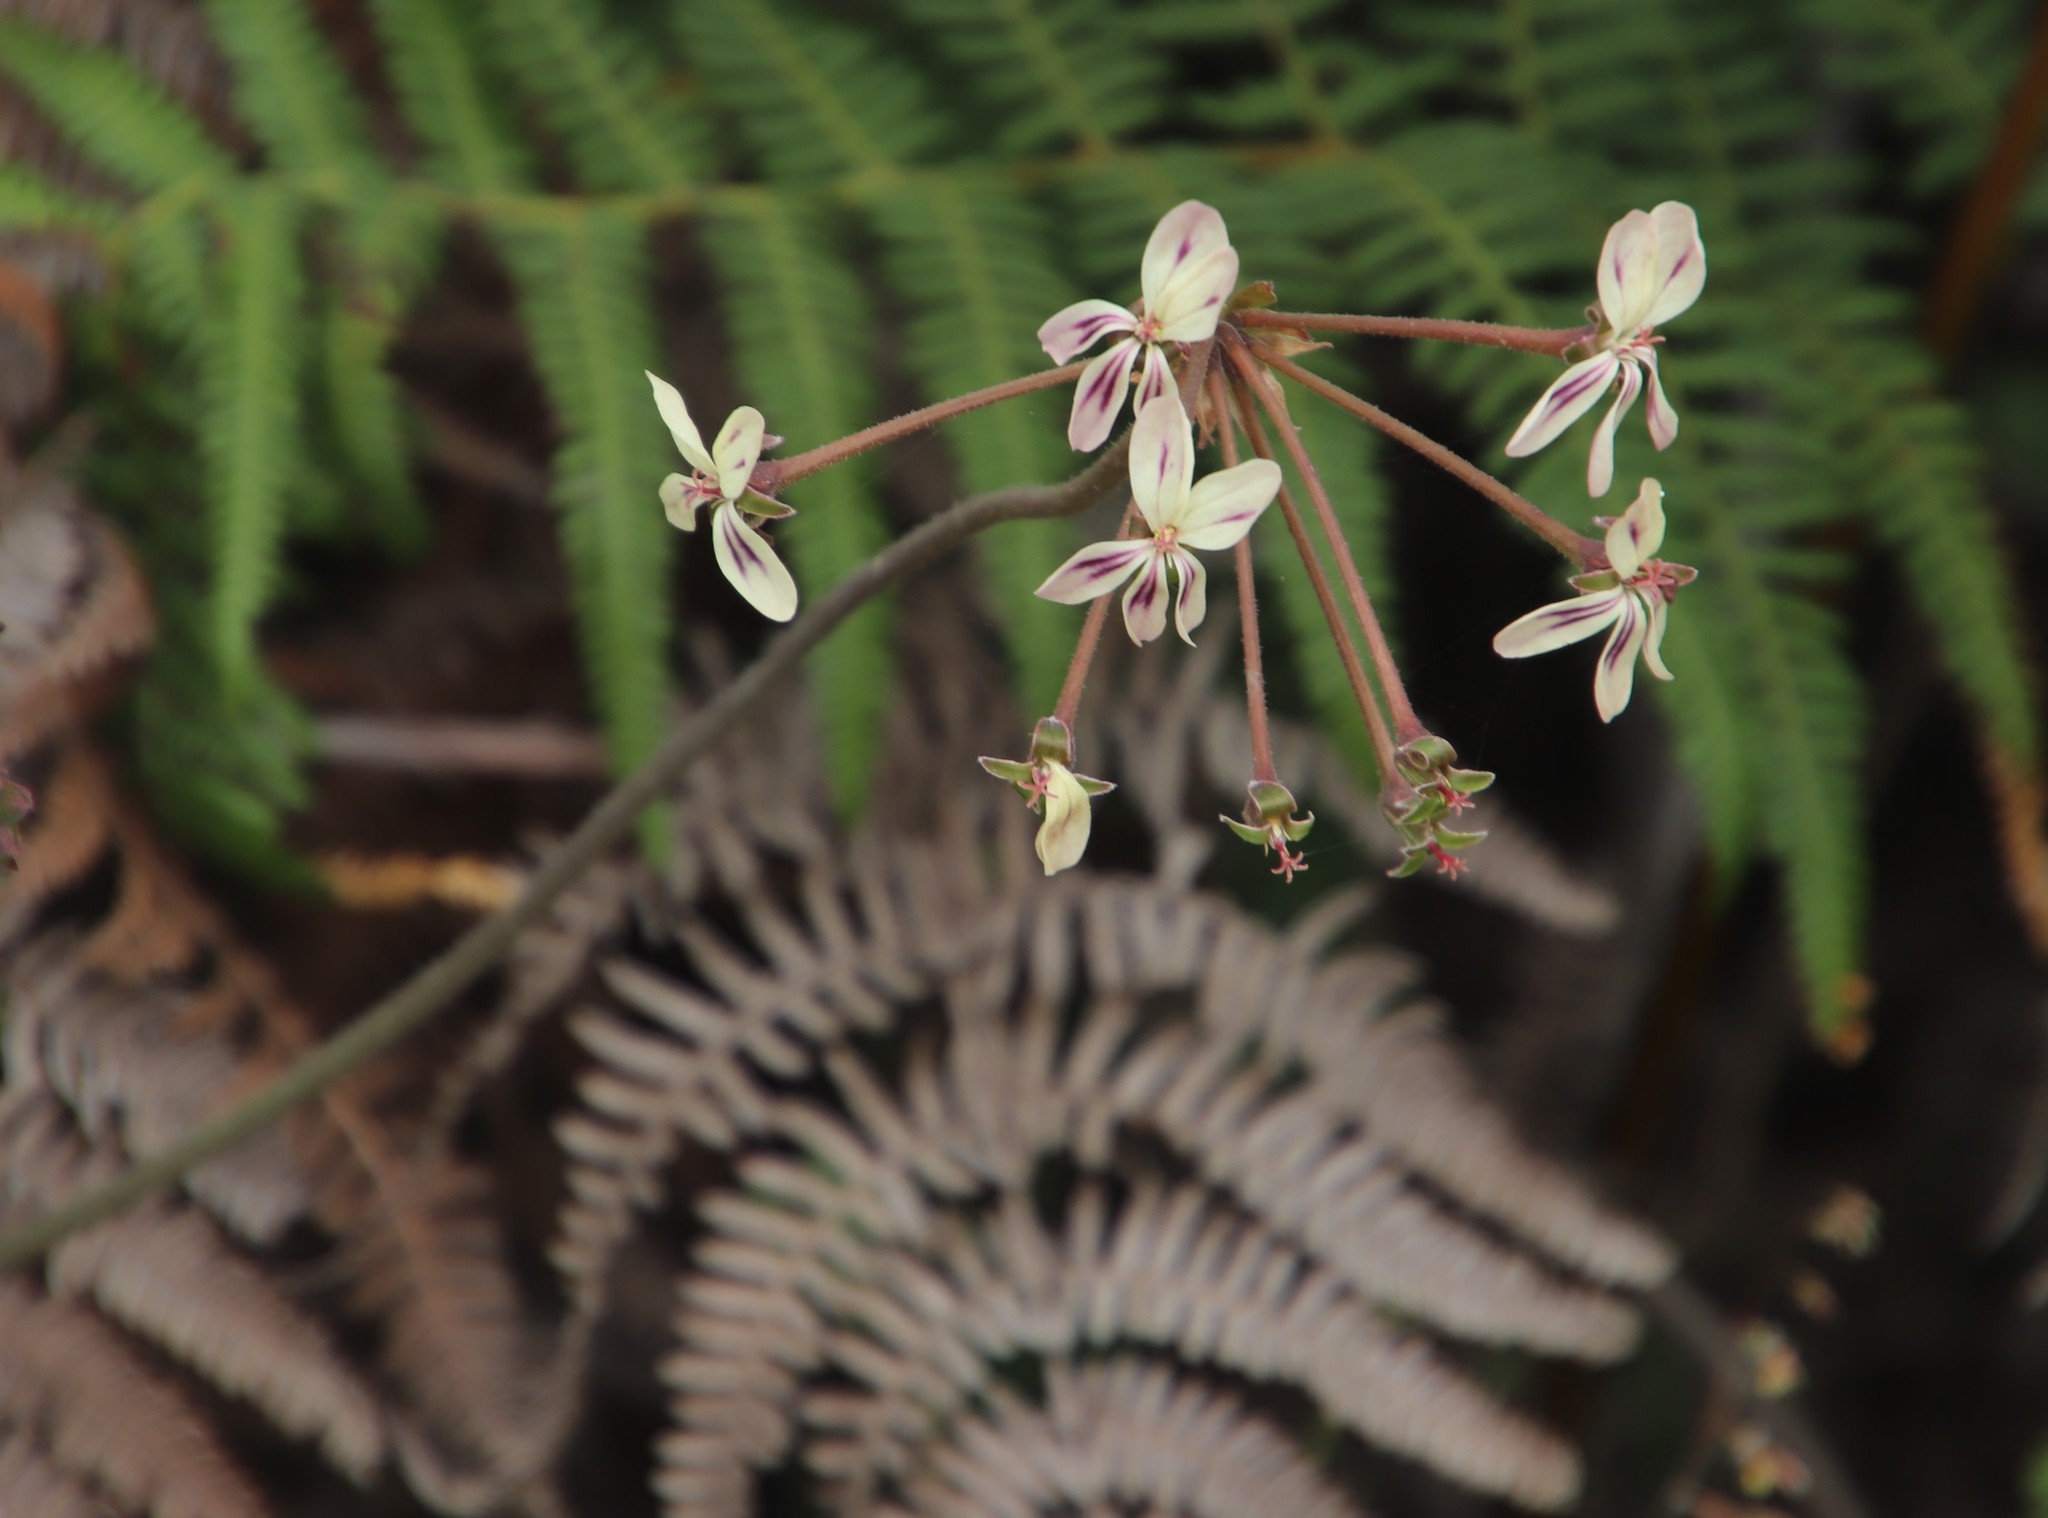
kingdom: Plantae
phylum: Tracheophyta
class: Magnoliopsida
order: Geraniales
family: Geraniaceae
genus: Pelargonium
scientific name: Pelargonium triste
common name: Night-scent pelargonium
